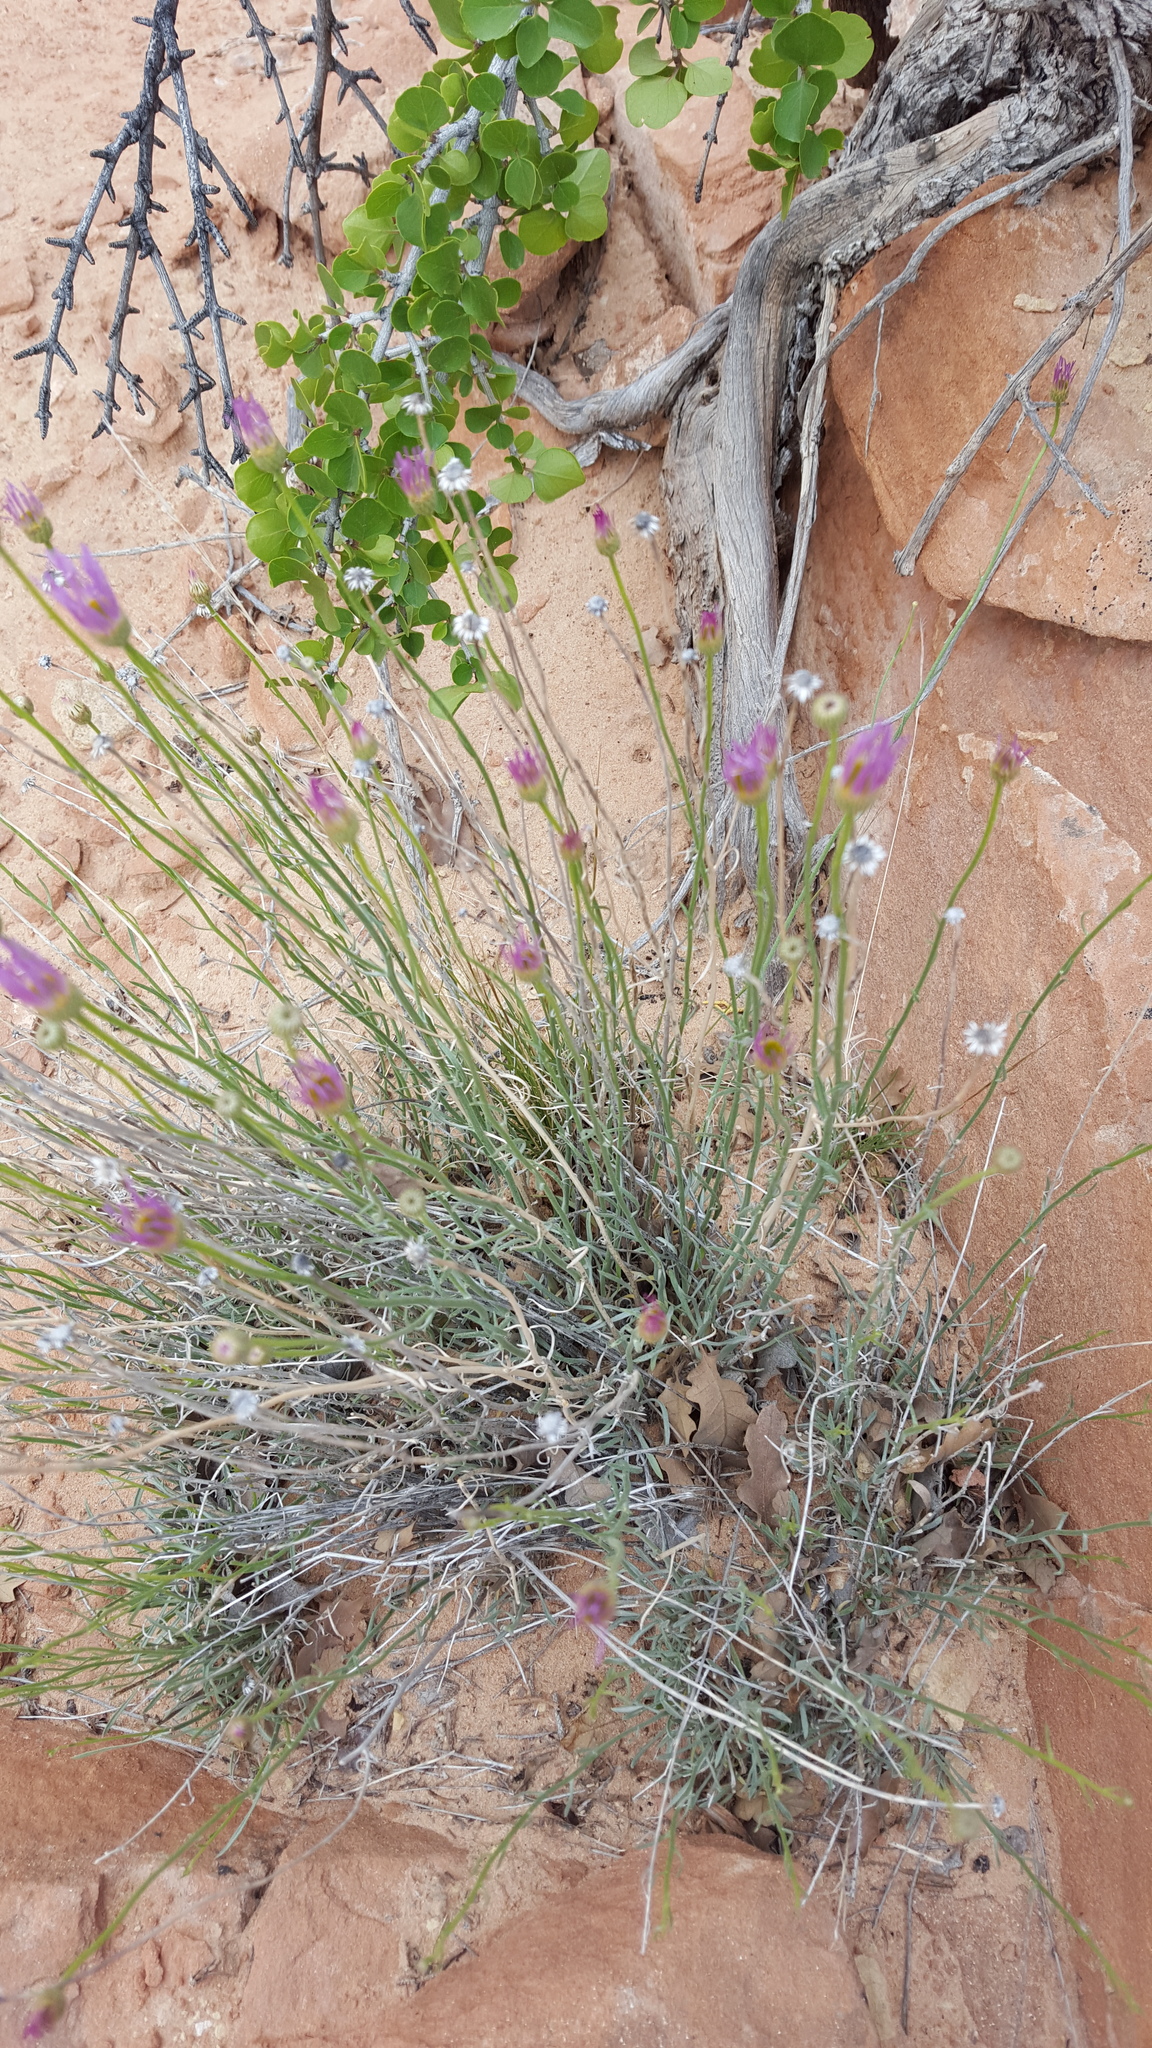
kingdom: Plantae
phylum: Tracheophyta
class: Magnoliopsida
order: Asterales
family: Asteraceae
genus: Erigeron
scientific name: Erigeron utahensis
